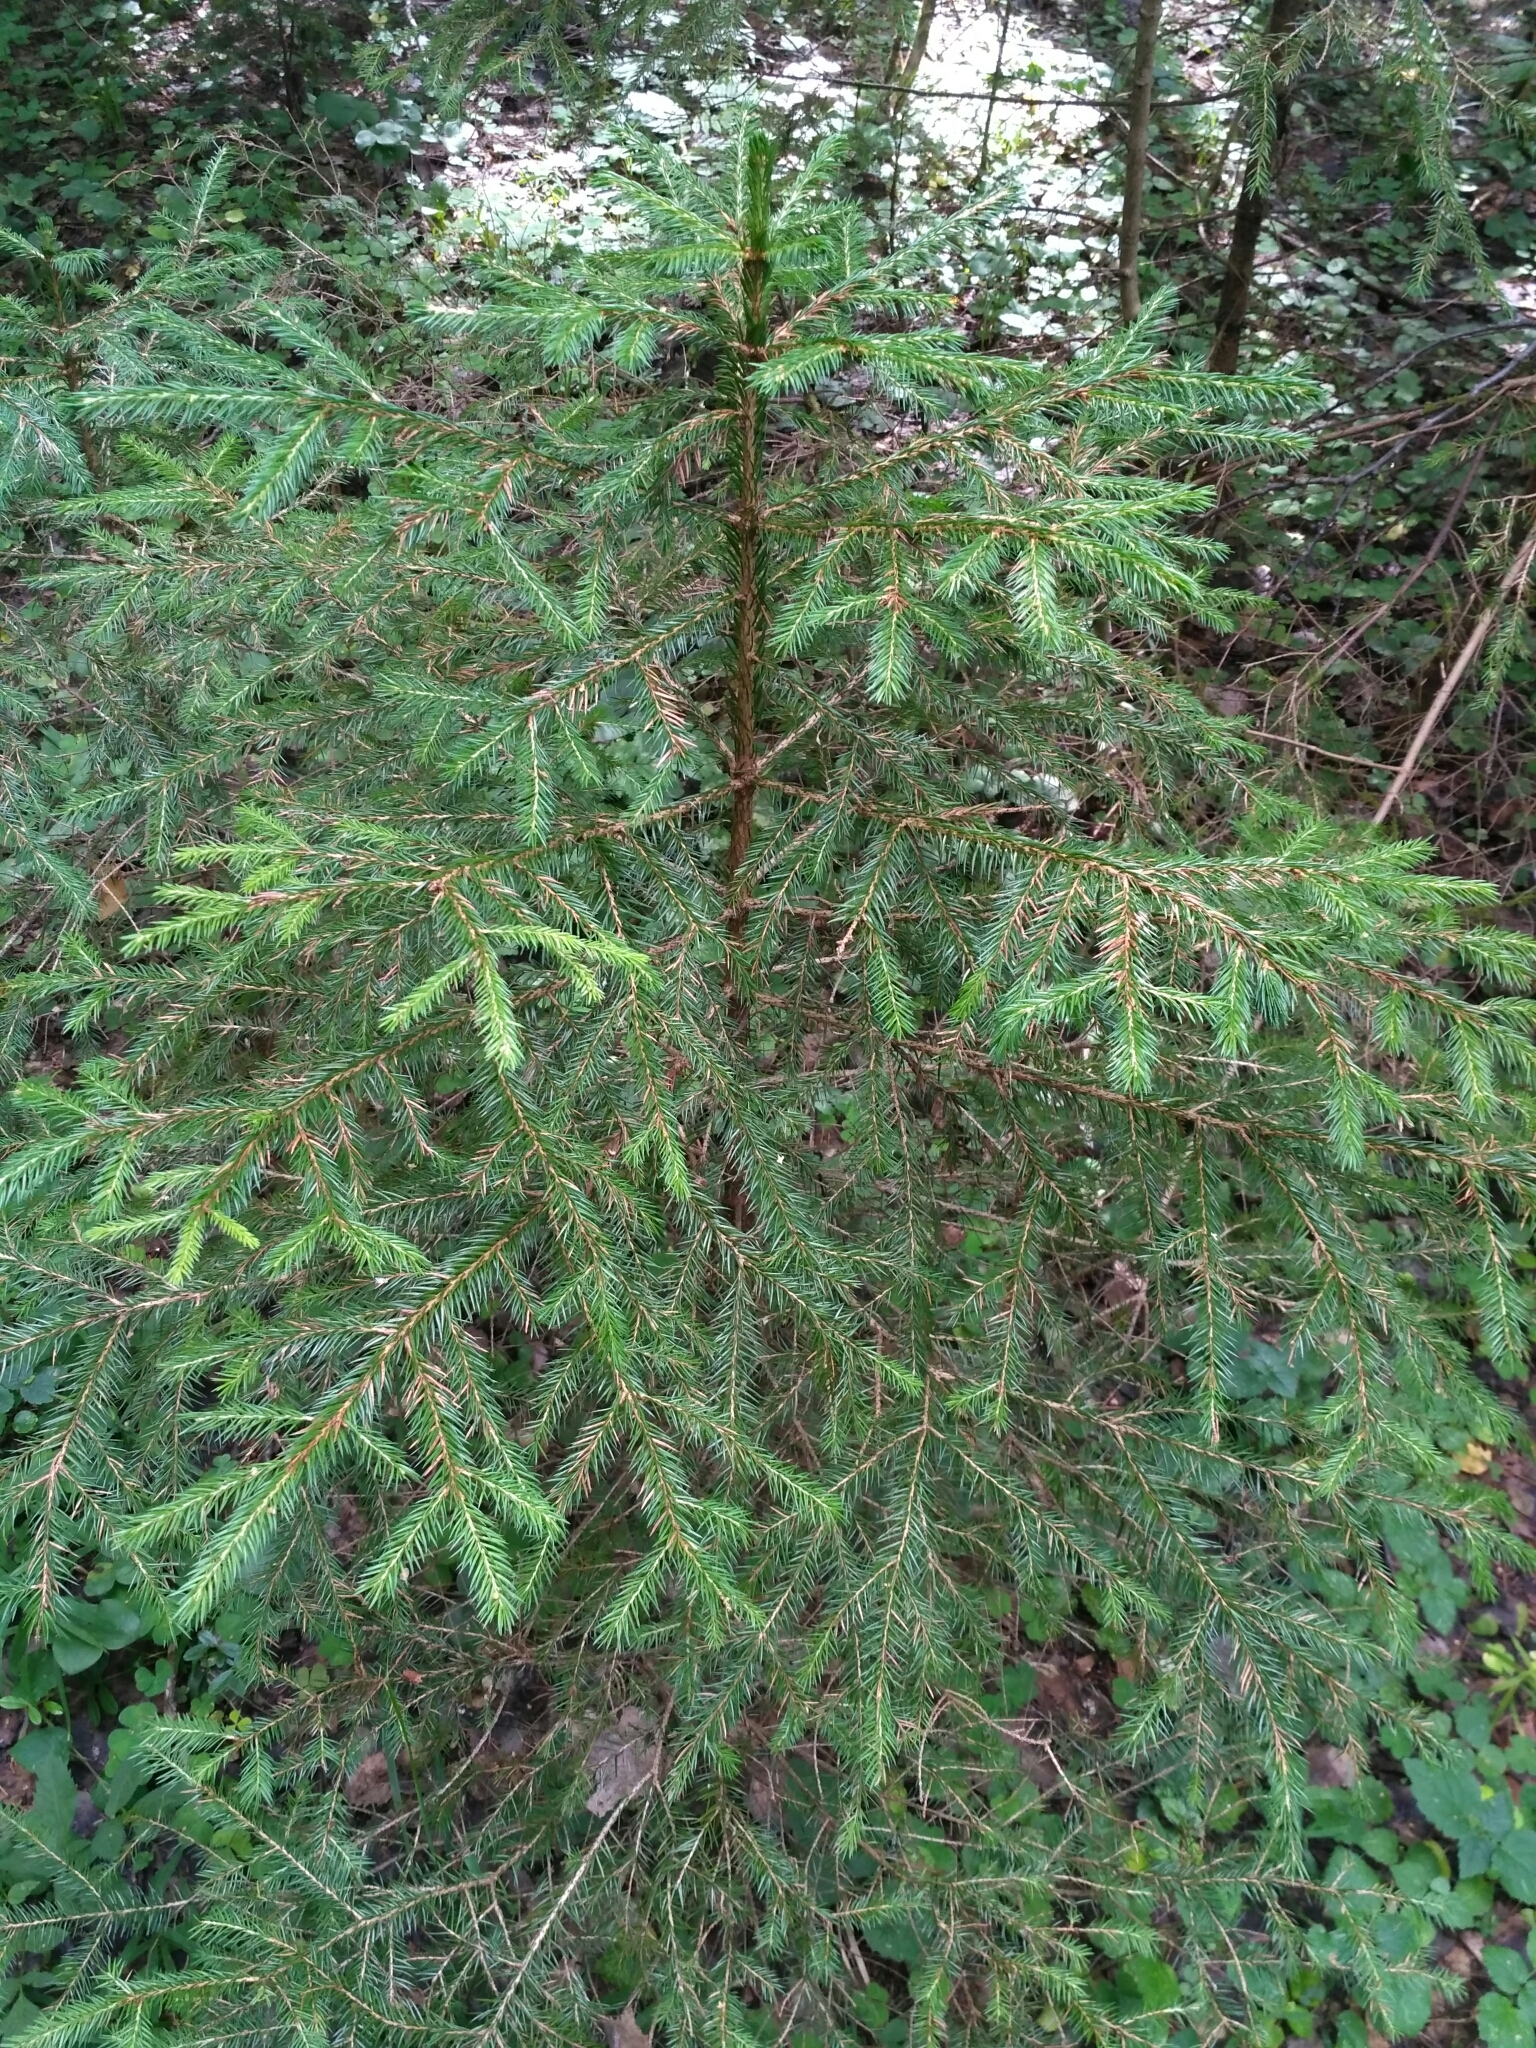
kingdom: Plantae
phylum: Tracheophyta
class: Pinopsida
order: Pinales
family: Pinaceae
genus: Picea
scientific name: Picea abies
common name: Norway spruce
